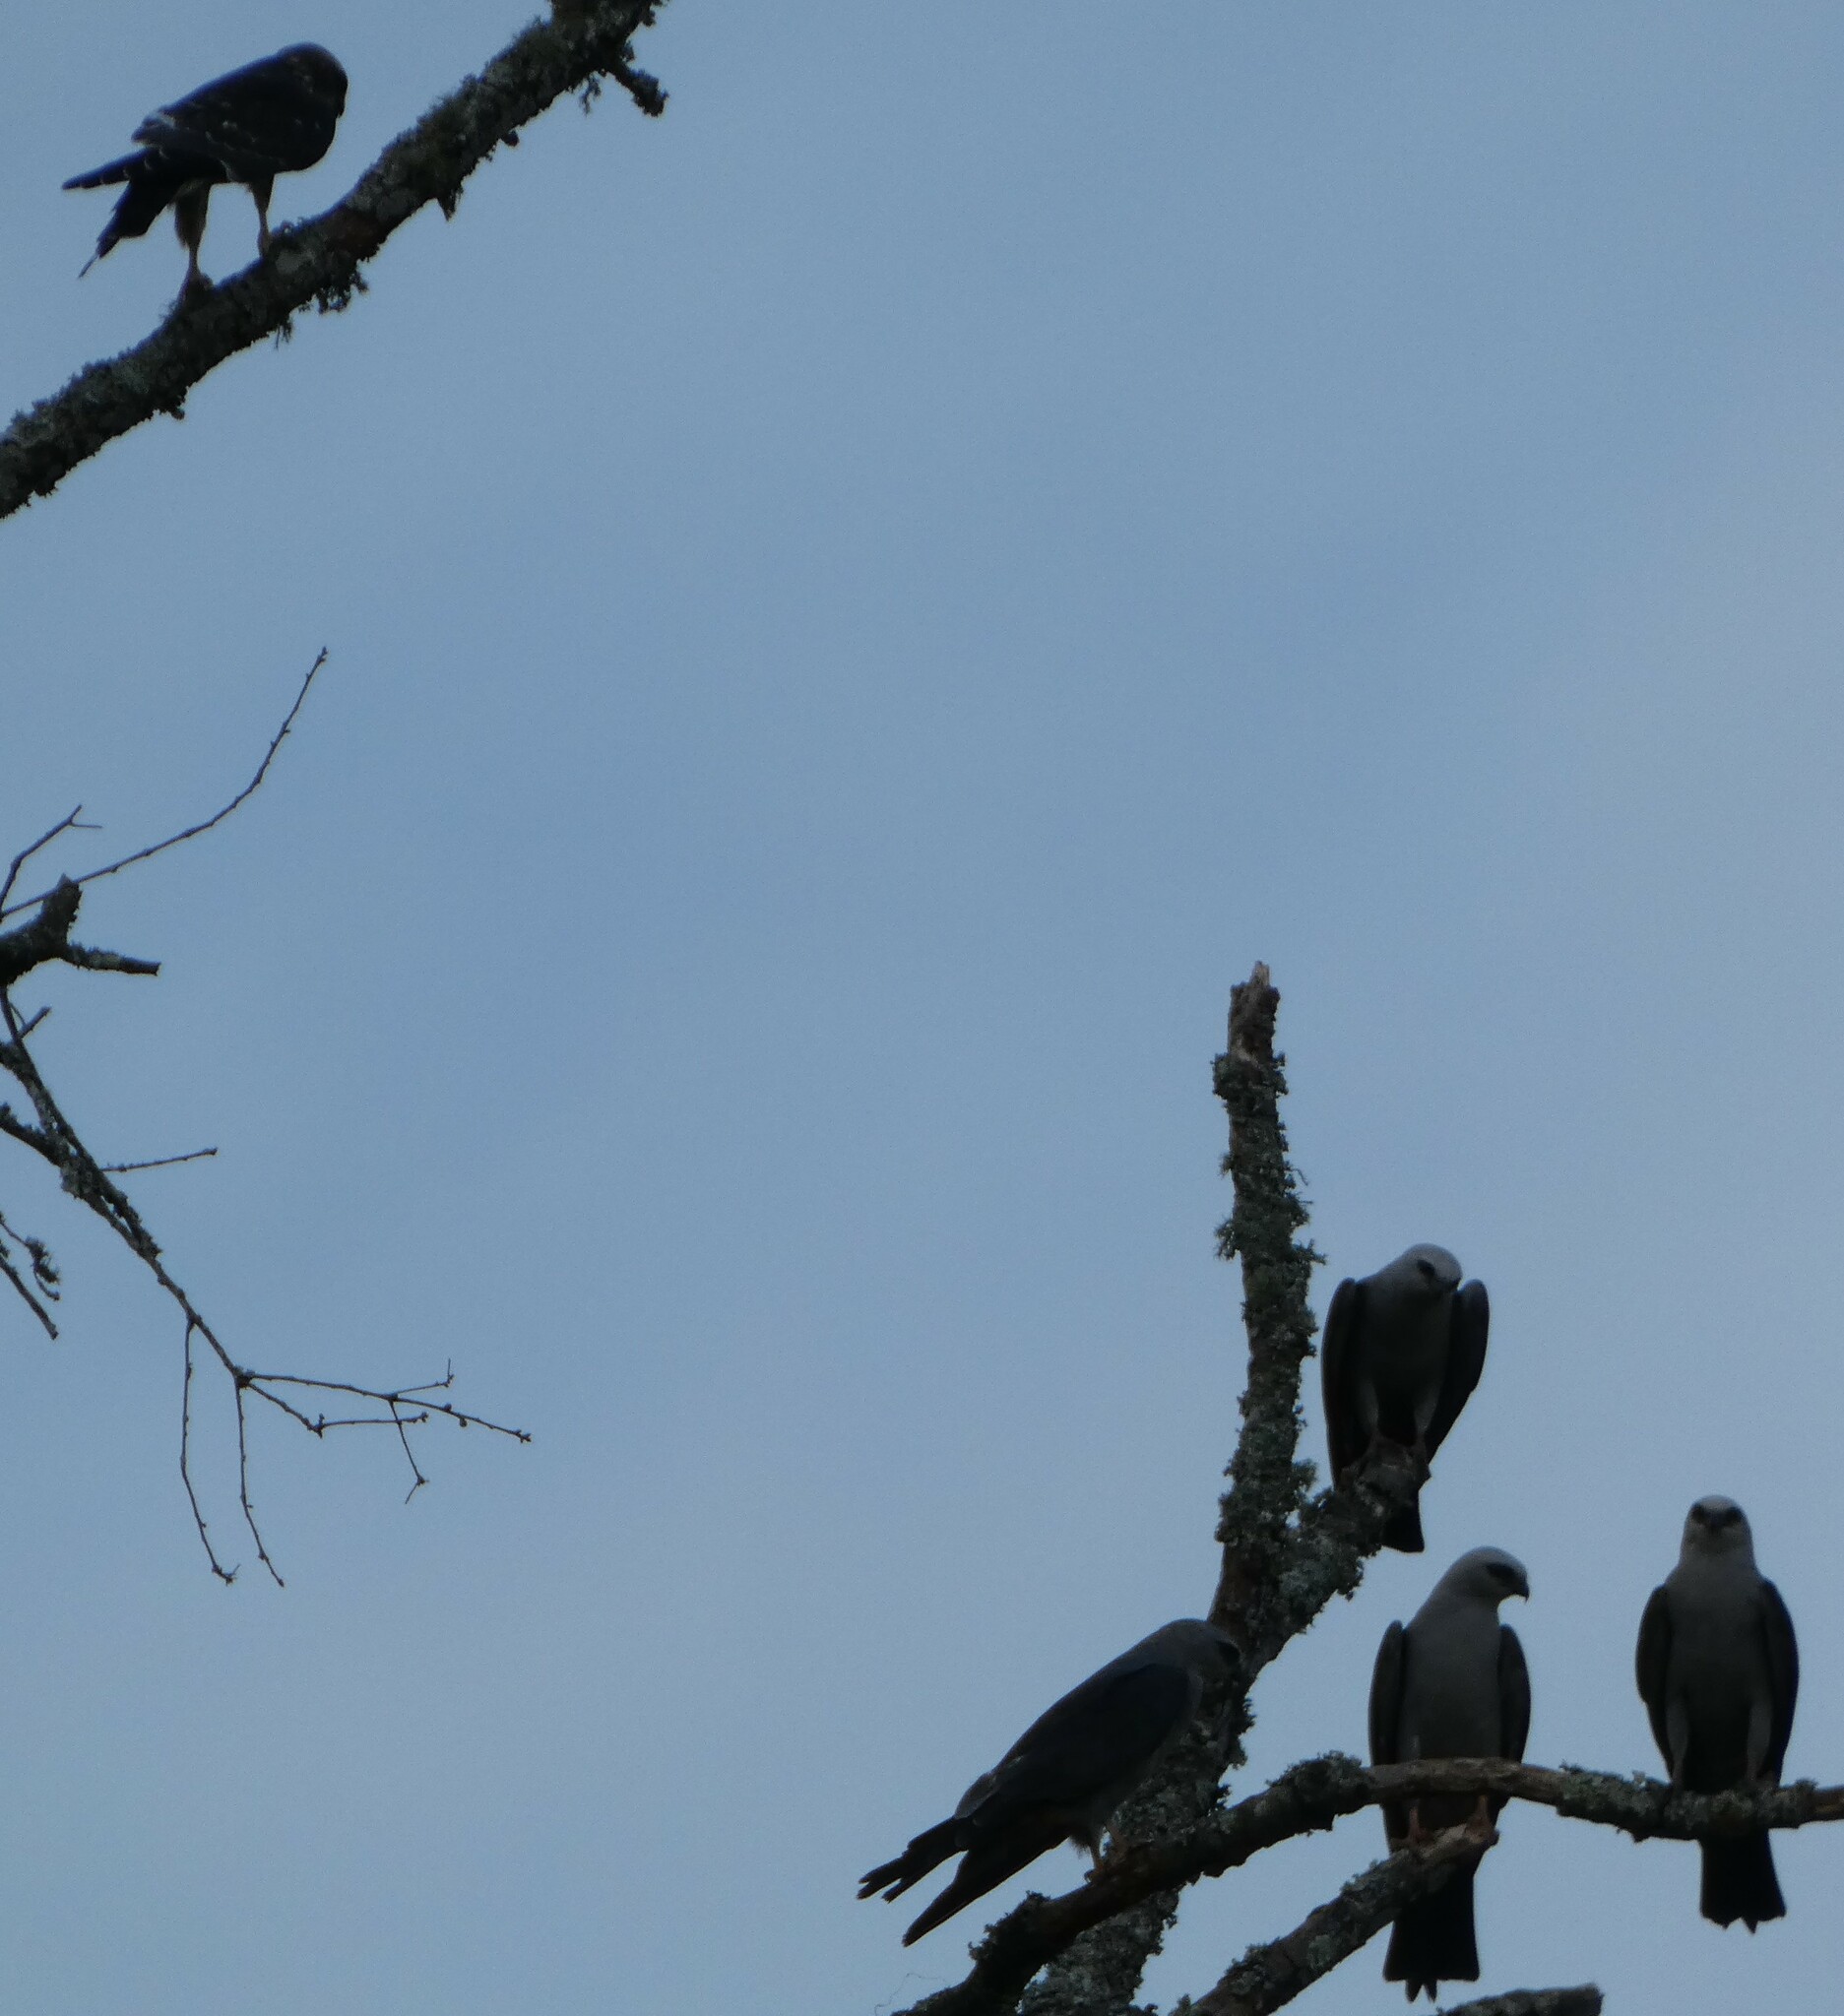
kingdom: Animalia
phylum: Chordata
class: Aves
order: Accipitriformes
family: Accipitridae
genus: Ictinia
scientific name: Ictinia mississippiensis
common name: Mississippi kite
